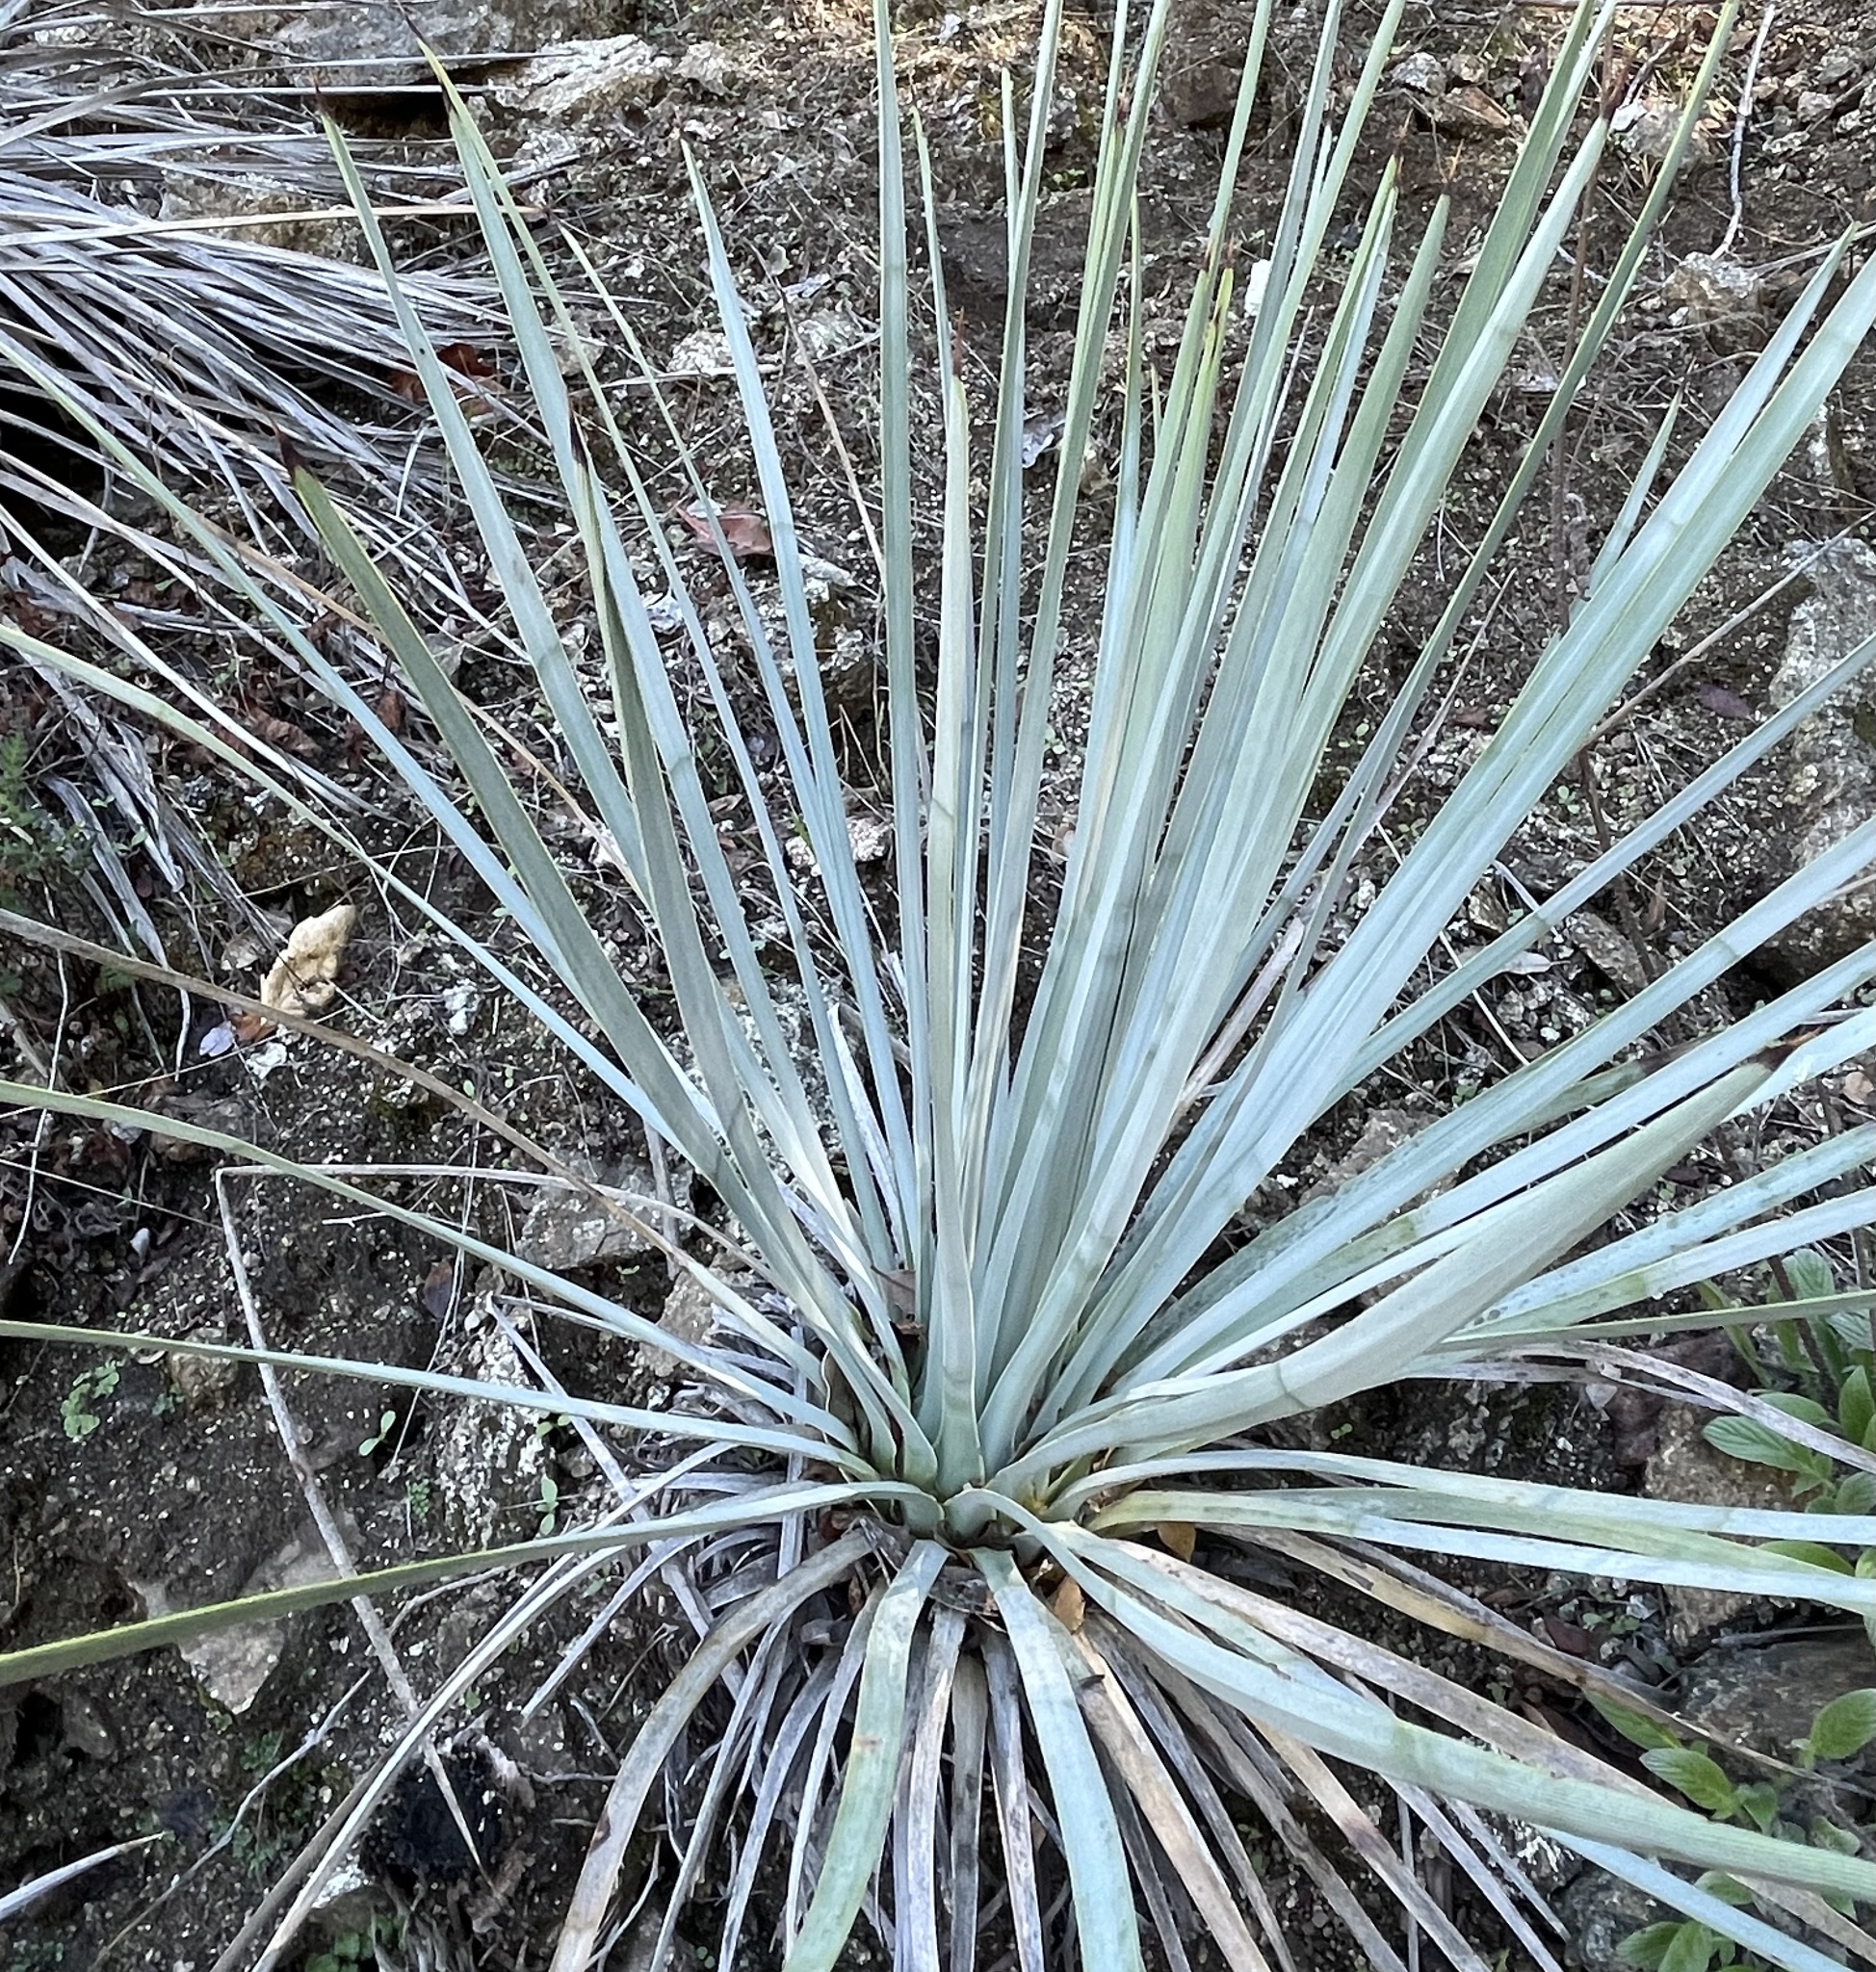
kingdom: Plantae
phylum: Tracheophyta
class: Liliopsida
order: Asparagales
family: Asparagaceae
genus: Hesperoyucca
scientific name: Hesperoyucca whipplei
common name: Our lord's-candle
